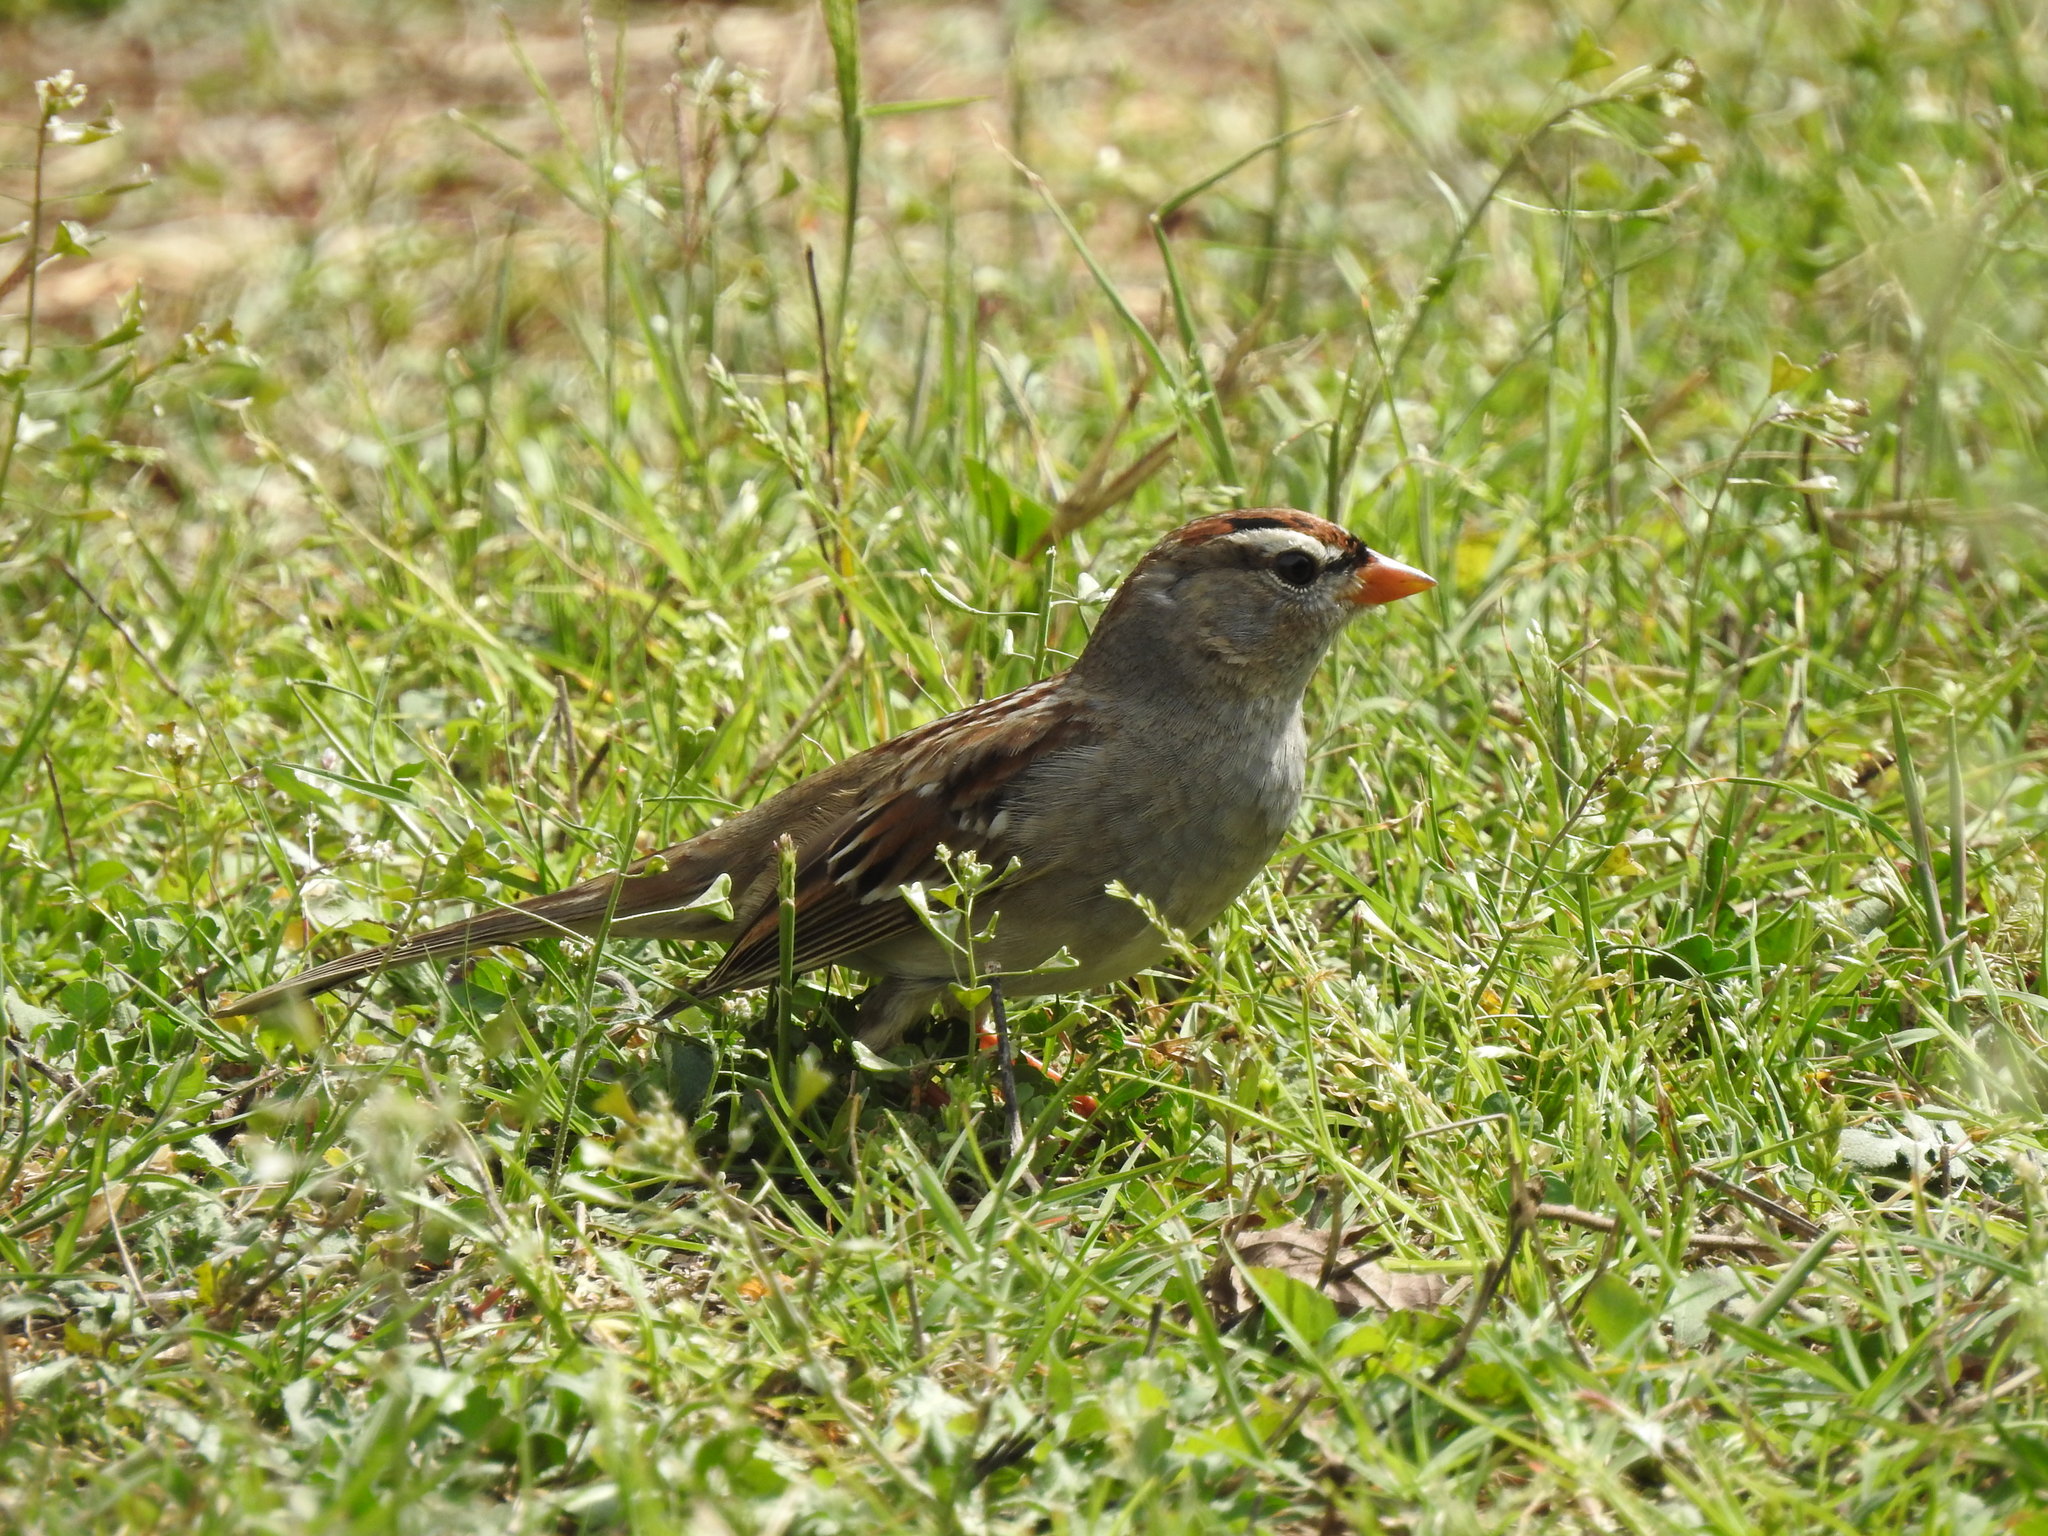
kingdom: Animalia
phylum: Chordata
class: Aves
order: Passeriformes
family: Passerellidae
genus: Zonotrichia
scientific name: Zonotrichia leucophrys
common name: White-crowned sparrow
